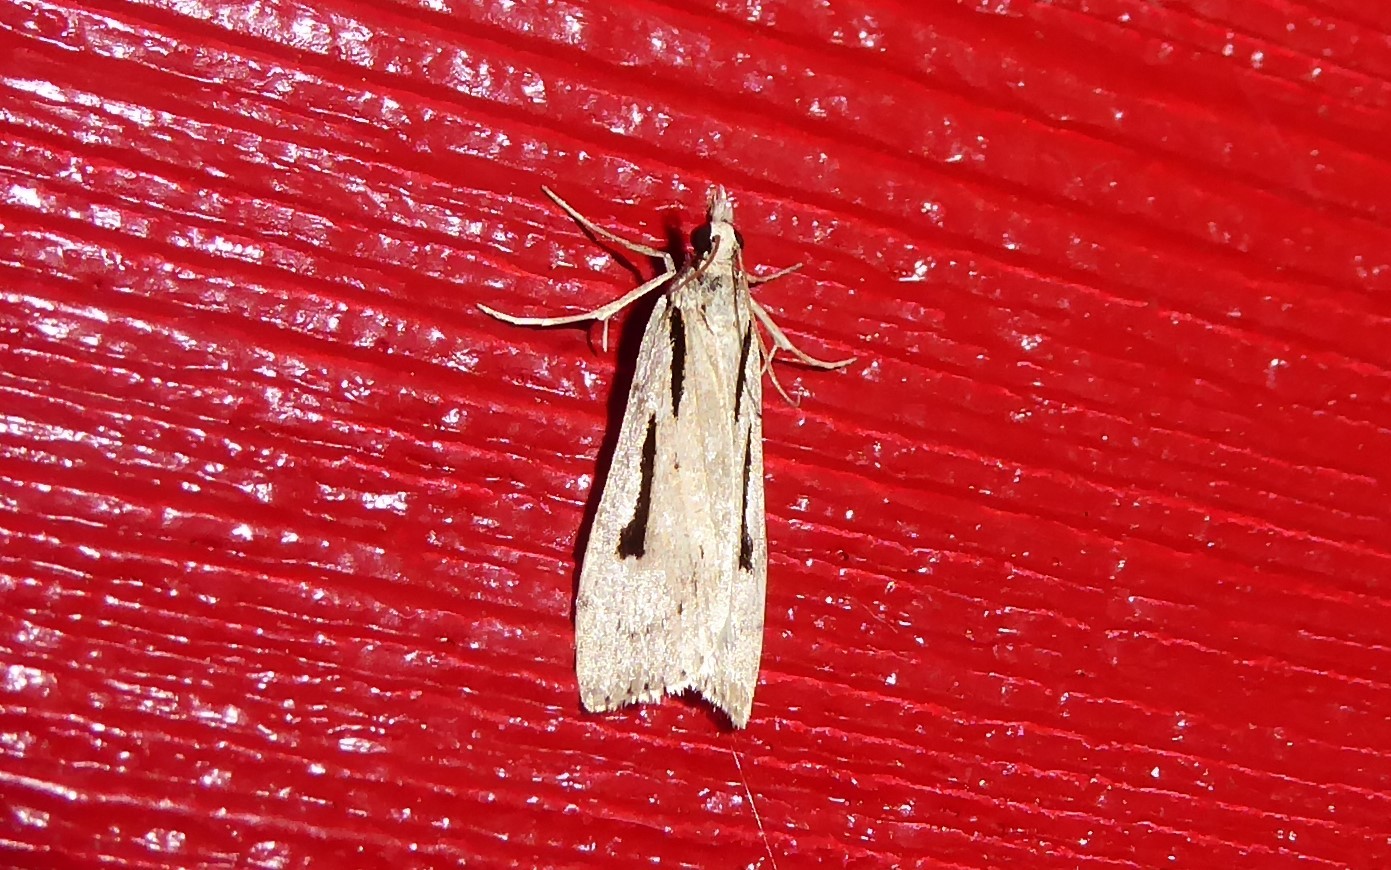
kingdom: Animalia
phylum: Arthropoda
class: Insecta
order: Lepidoptera
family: Crambidae
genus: Scoparia
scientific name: Scoparia rotuellus
